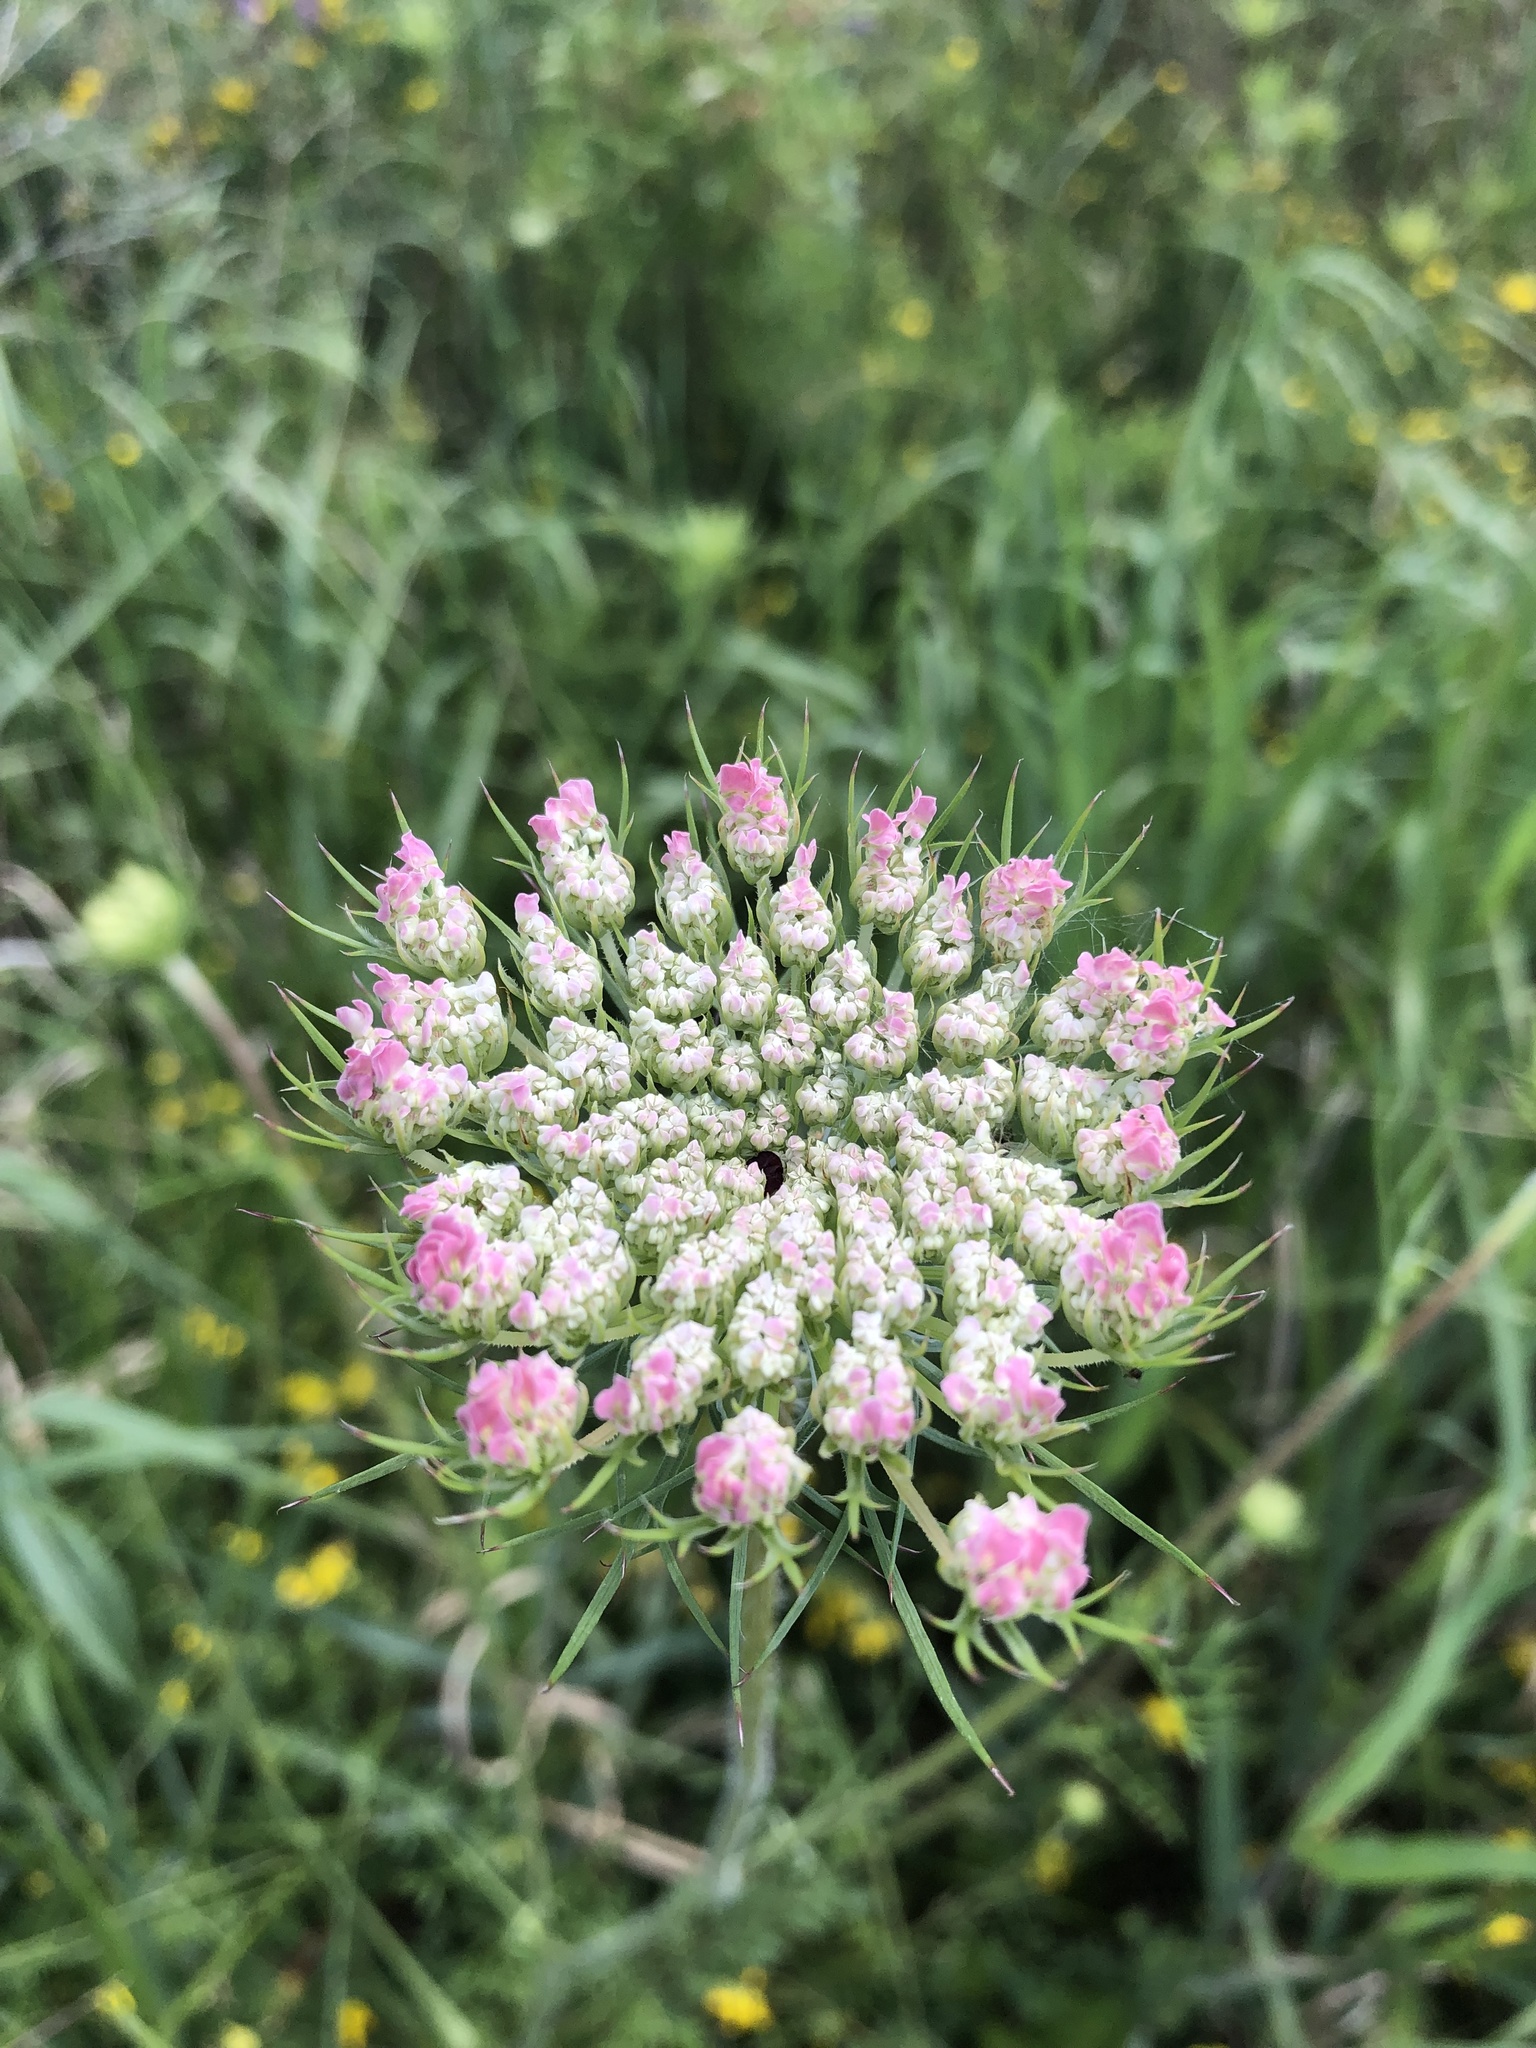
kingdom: Plantae
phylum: Tracheophyta
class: Magnoliopsida
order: Apiales
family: Apiaceae
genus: Daucus
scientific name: Daucus carota
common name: Wild carrot
